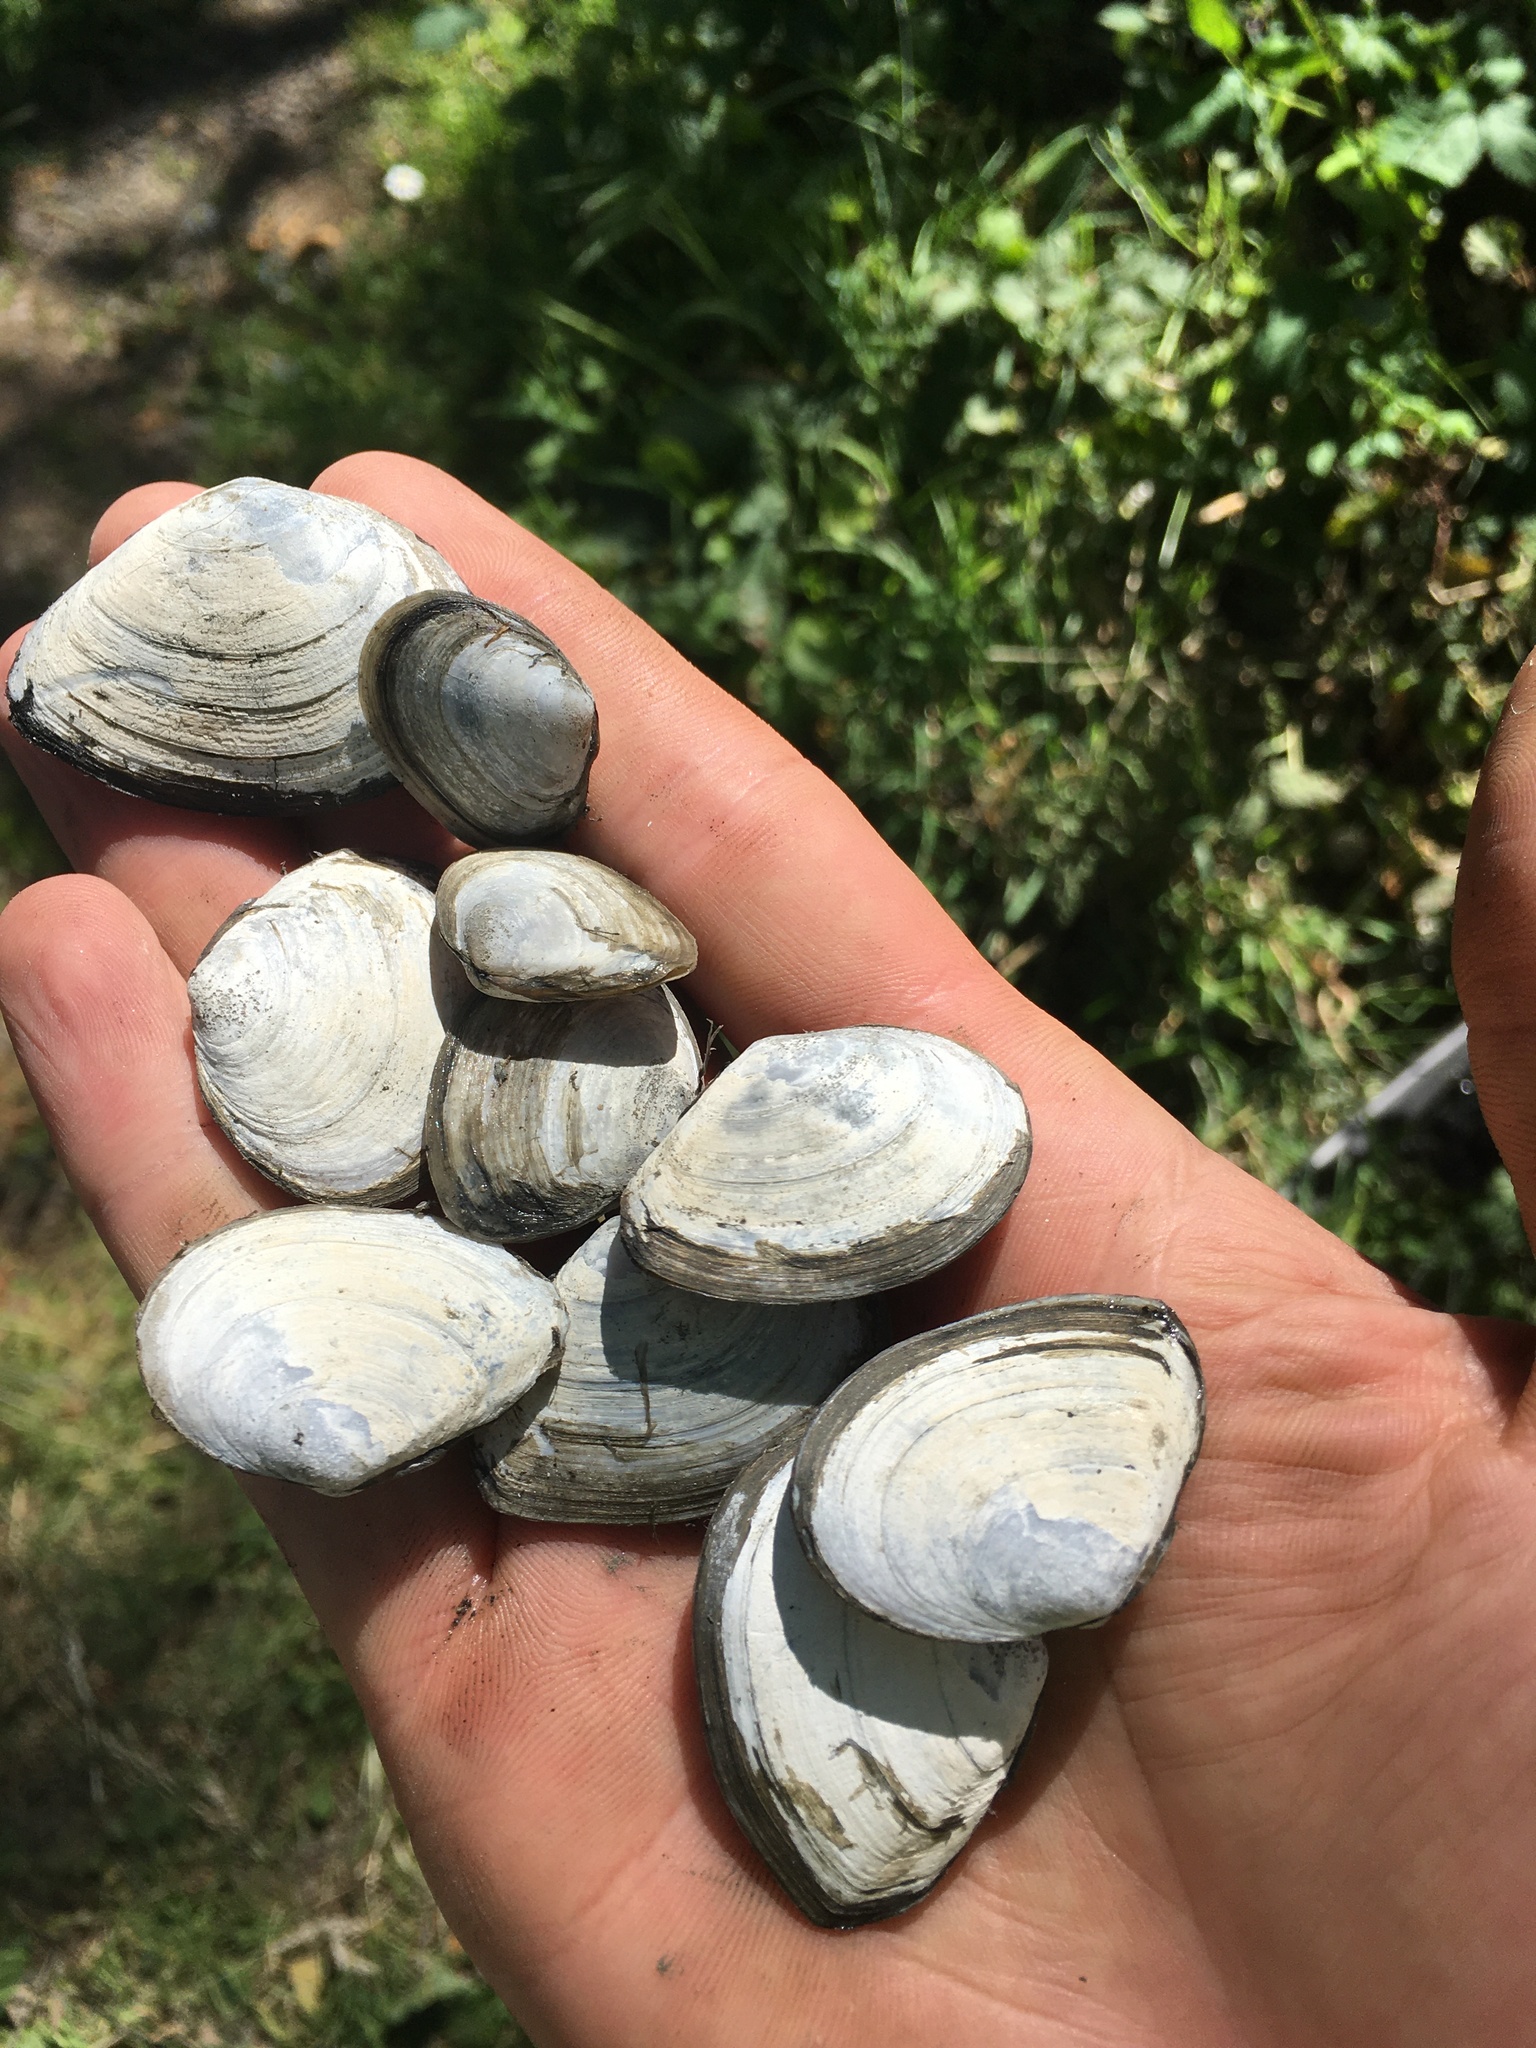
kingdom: Animalia
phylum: Mollusca
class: Bivalvia
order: Cardiida
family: Tellinidae
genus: Macoma
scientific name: Macoma nasuta
